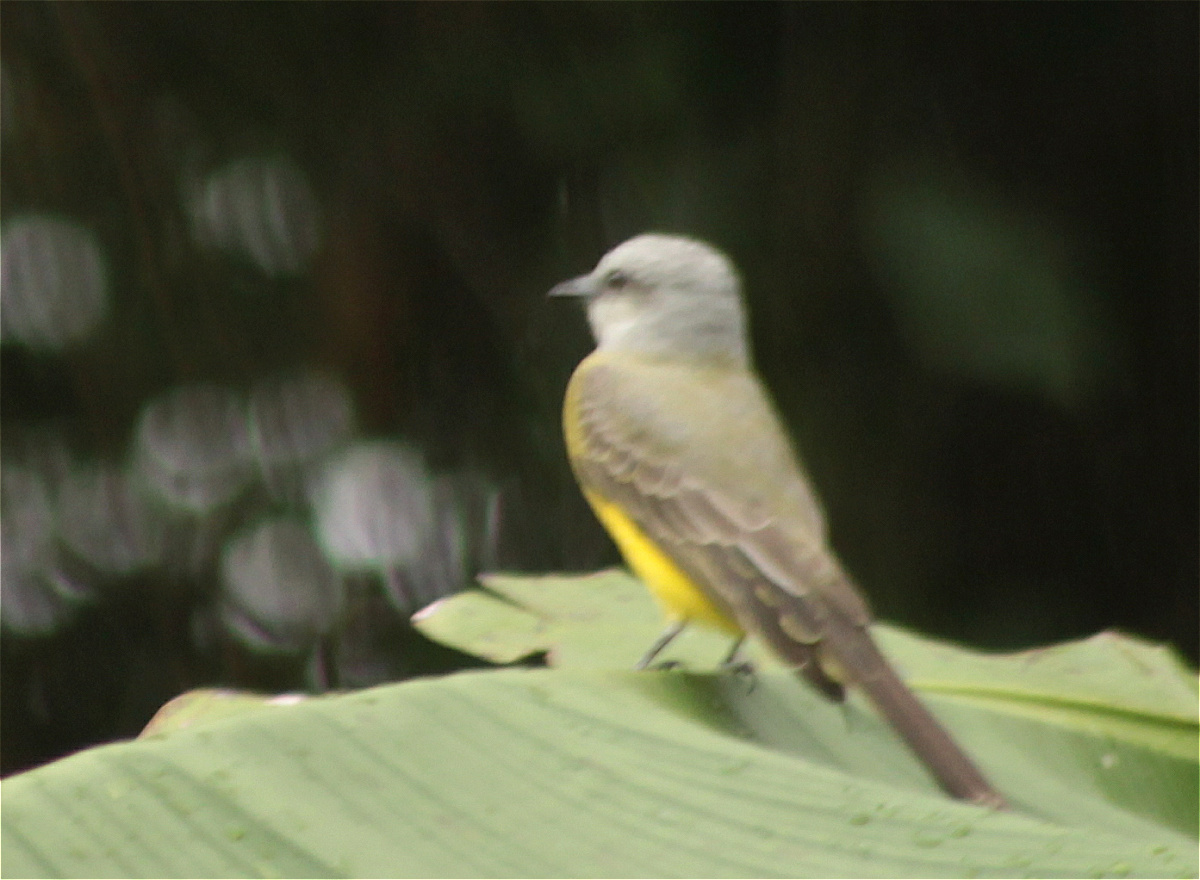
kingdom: Animalia
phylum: Chordata
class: Aves
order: Passeriformes
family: Tyrannidae
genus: Tyrannus
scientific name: Tyrannus melancholicus
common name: Tropical kingbird
